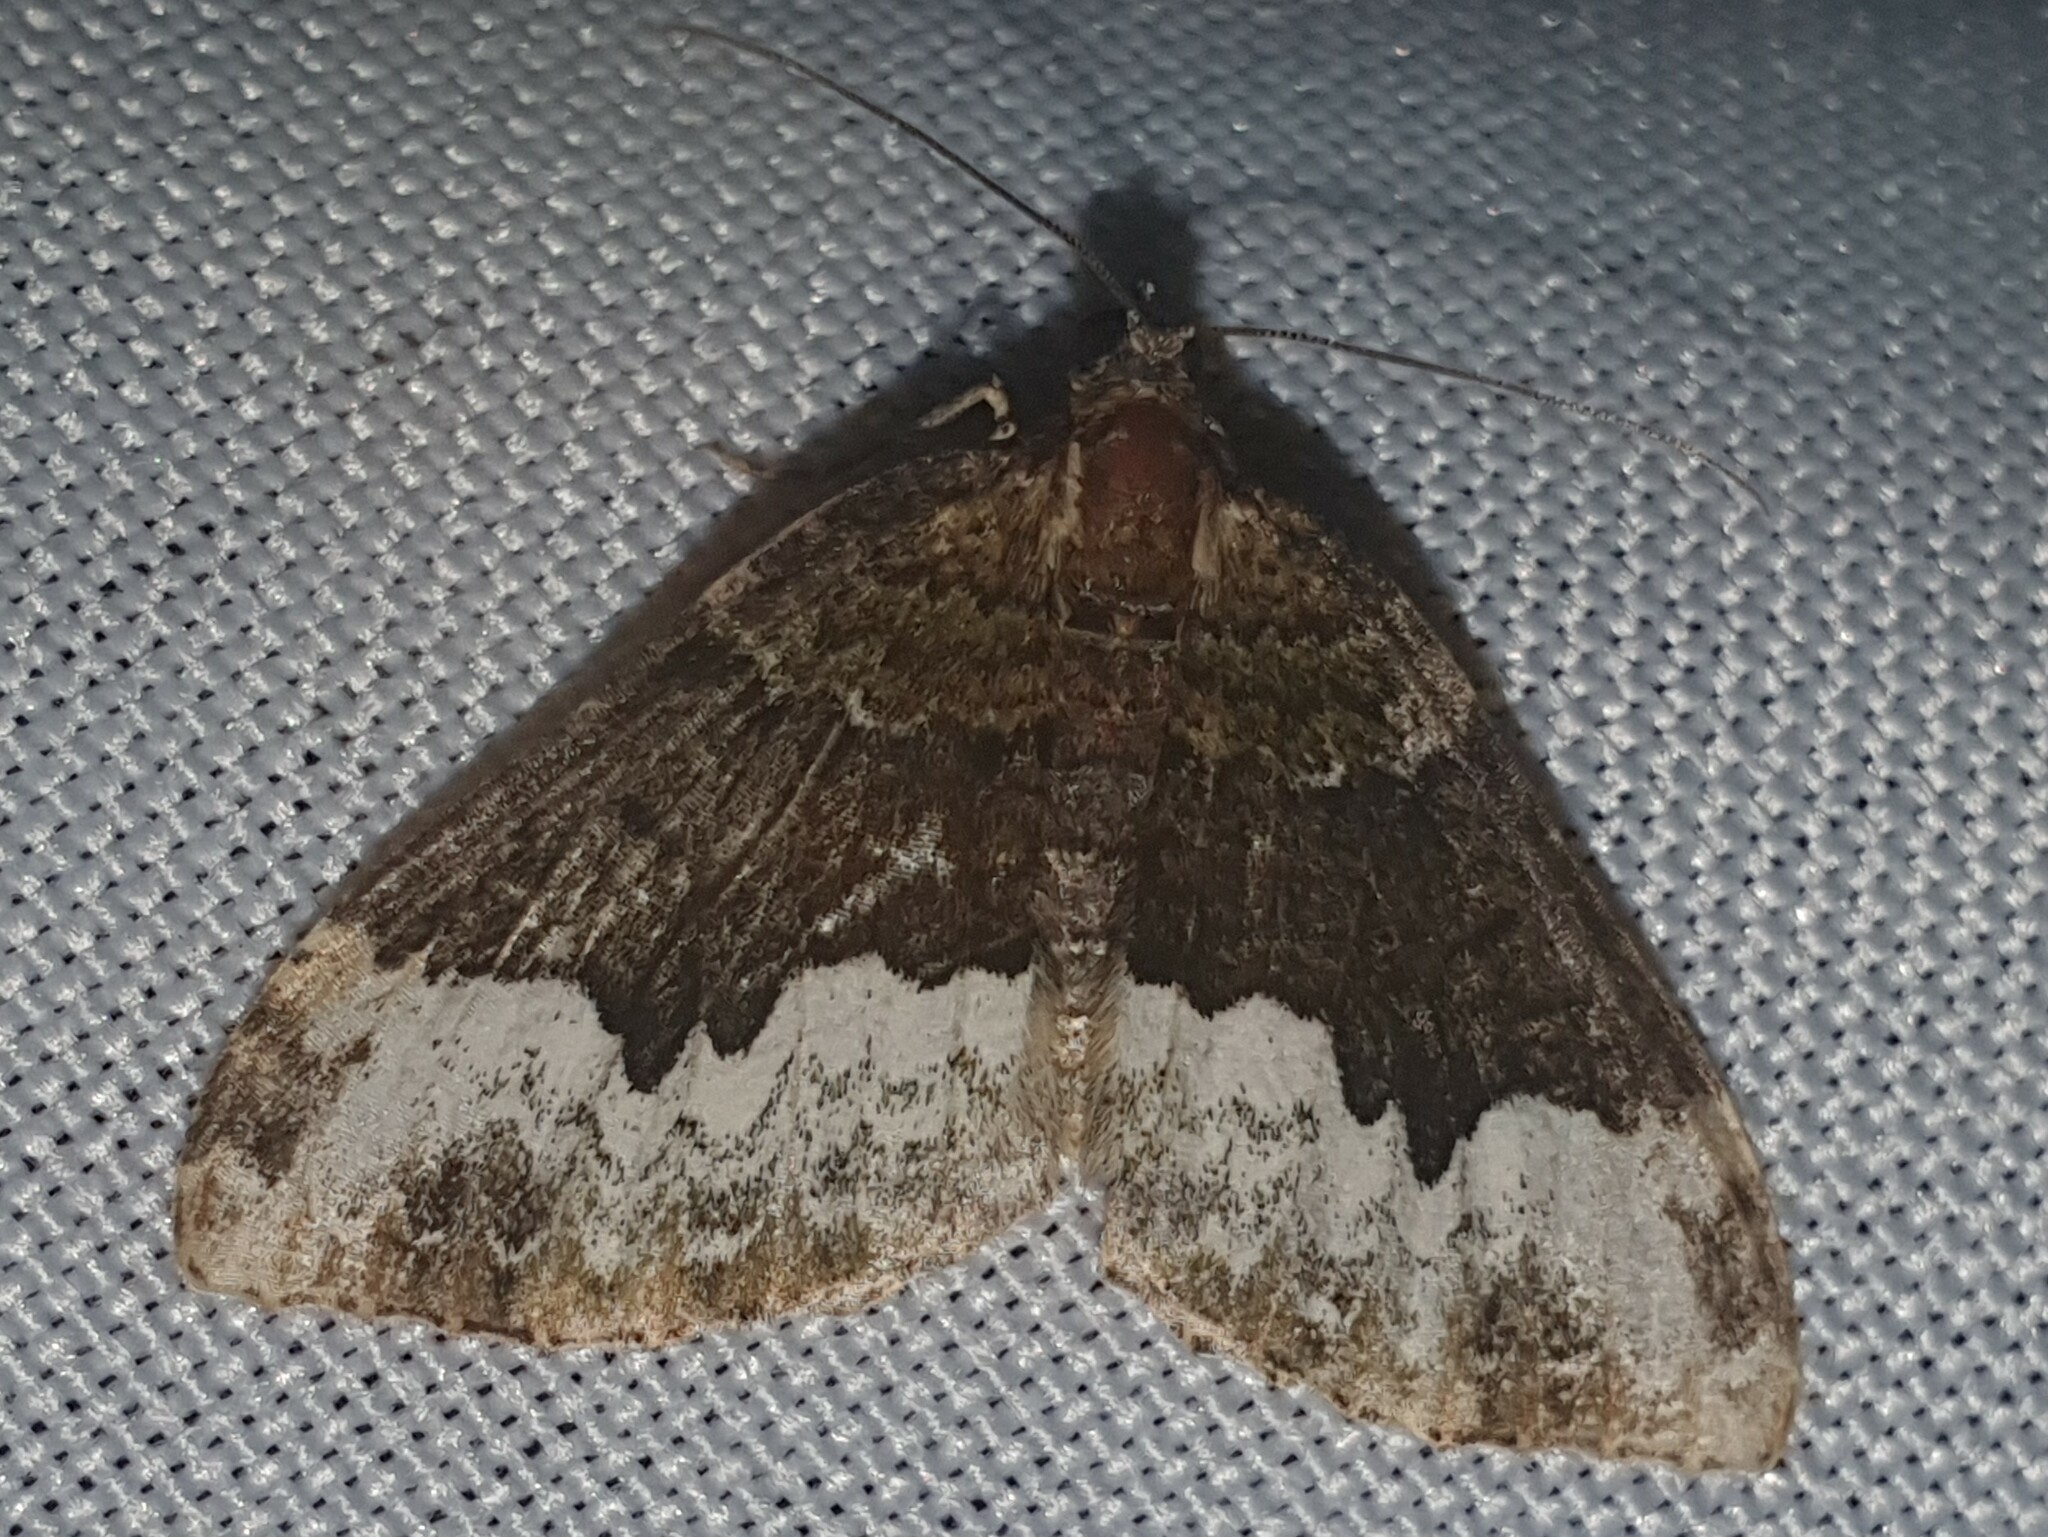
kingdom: Animalia
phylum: Arthropoda
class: Insecta
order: Lepidoptera
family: Geometridae
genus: Euphyia
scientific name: Euphyia biangulata
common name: Cloaked carpet
